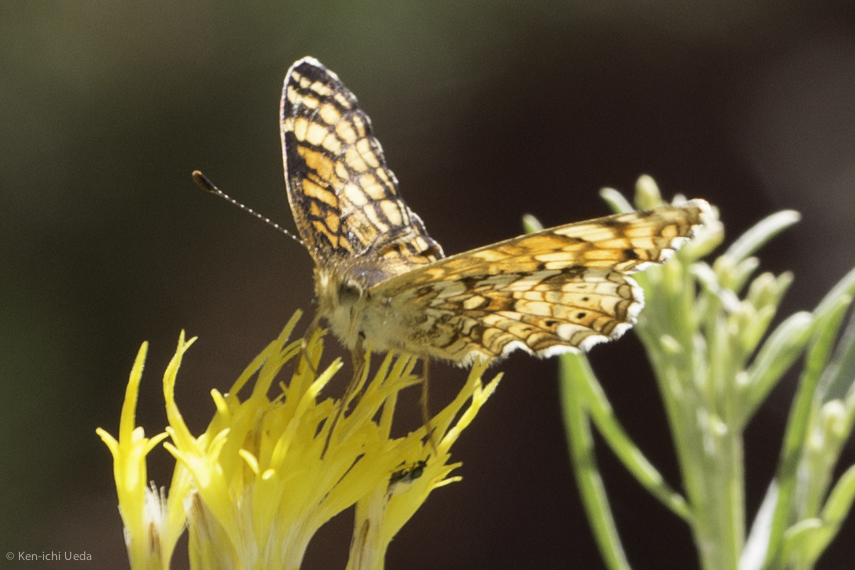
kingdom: Animalia
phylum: Arthropoda
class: Insecta
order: Lepidoptera
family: Nymphalidae
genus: Eresia
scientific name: Eresia aveyrona
